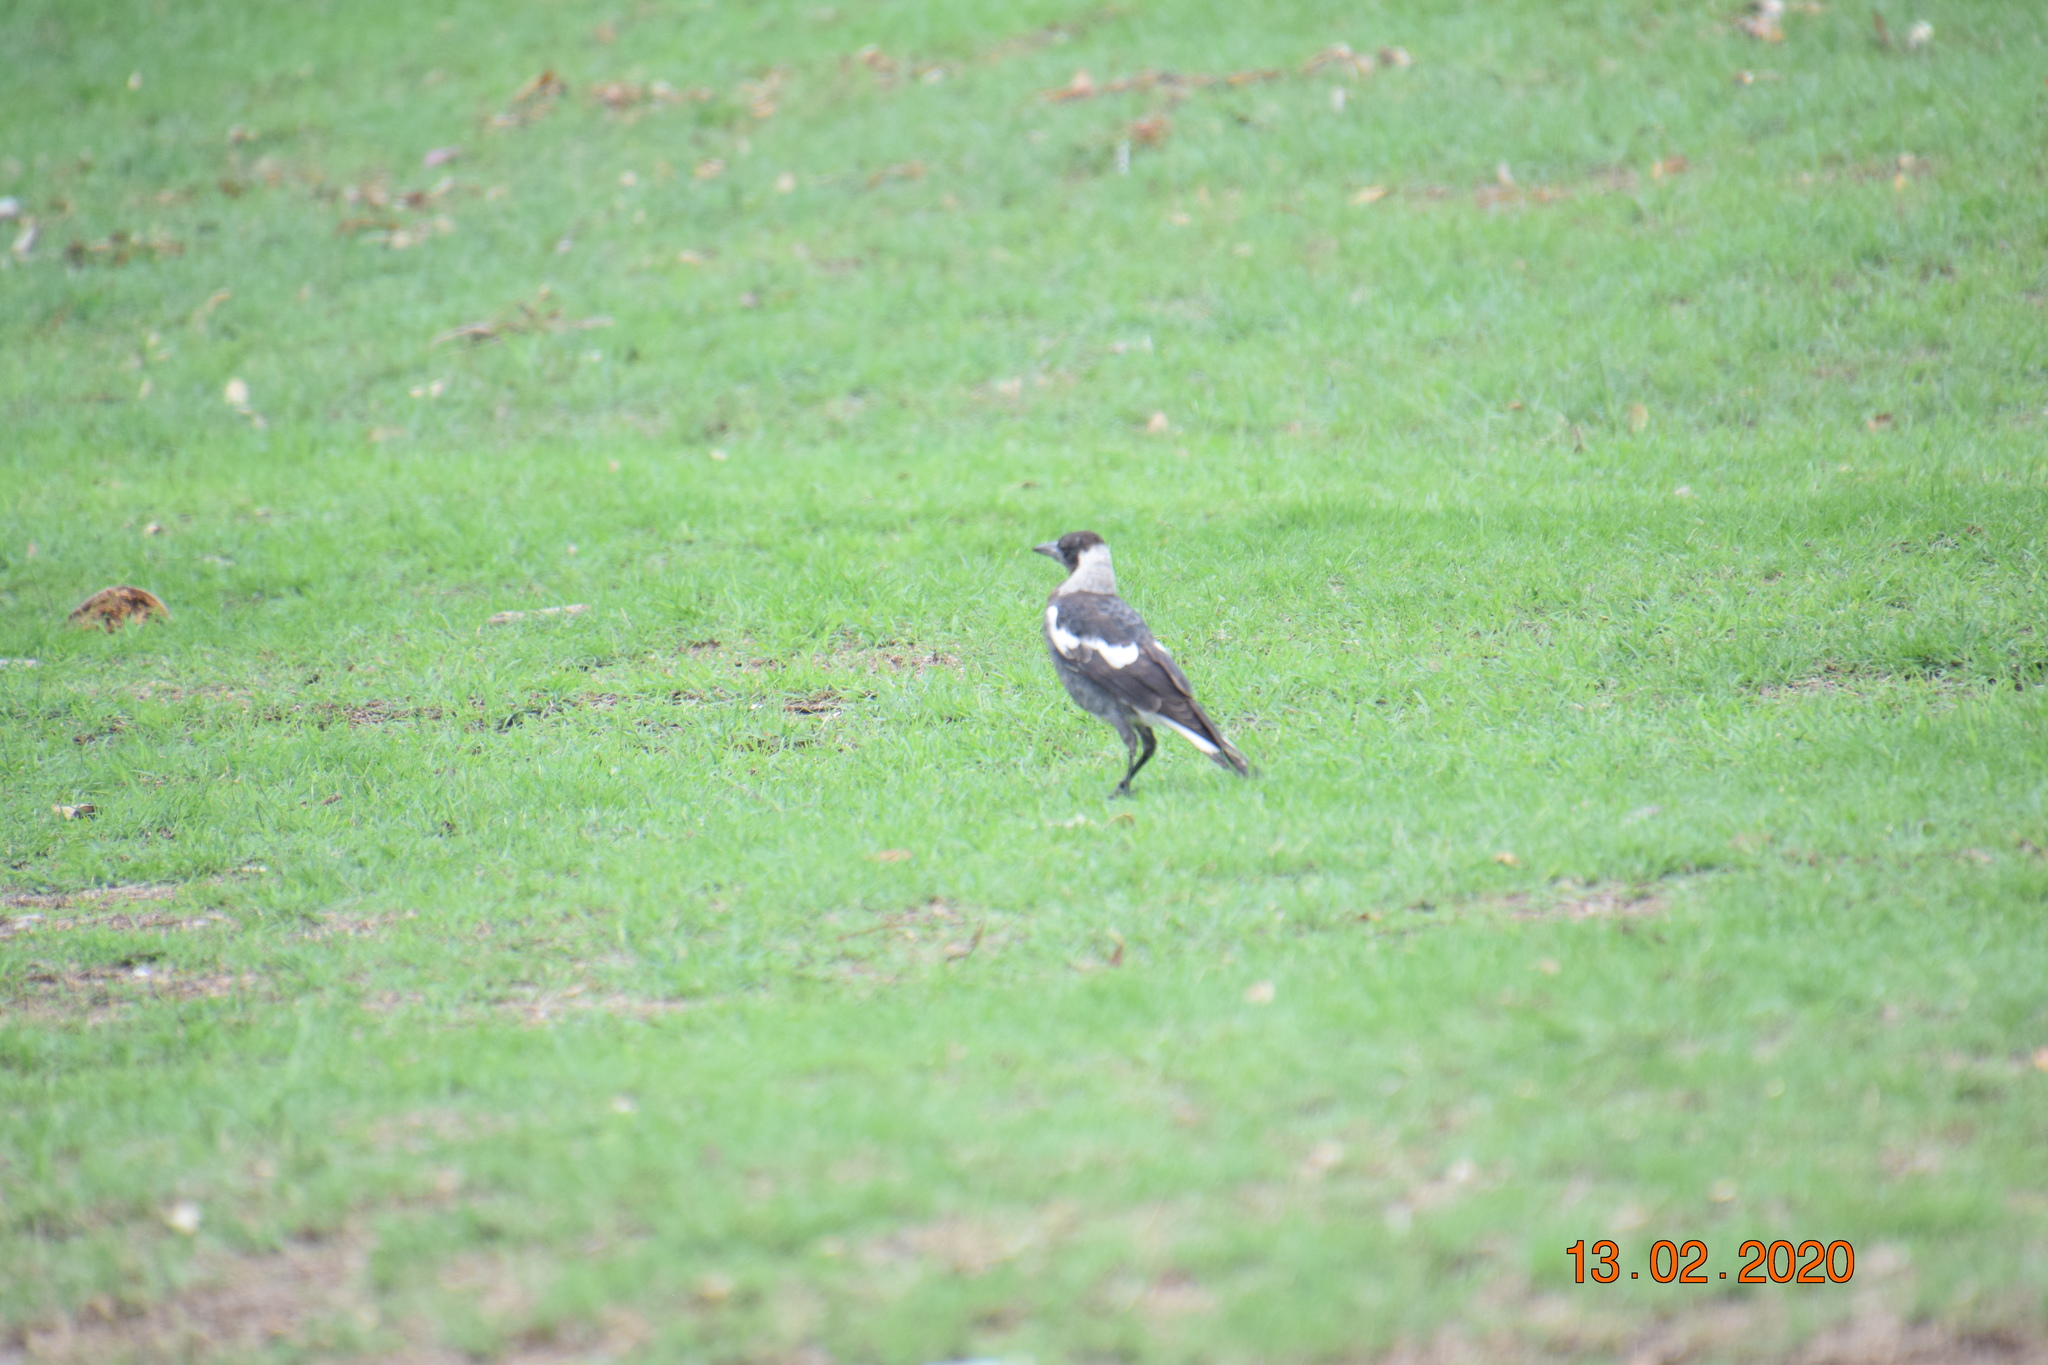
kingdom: Animalia
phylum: Chordata
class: Aves
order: Passeriformes
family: Cracticidae
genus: Gymnorhina
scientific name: Gymnorhina tibicen
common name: Australian magpie
